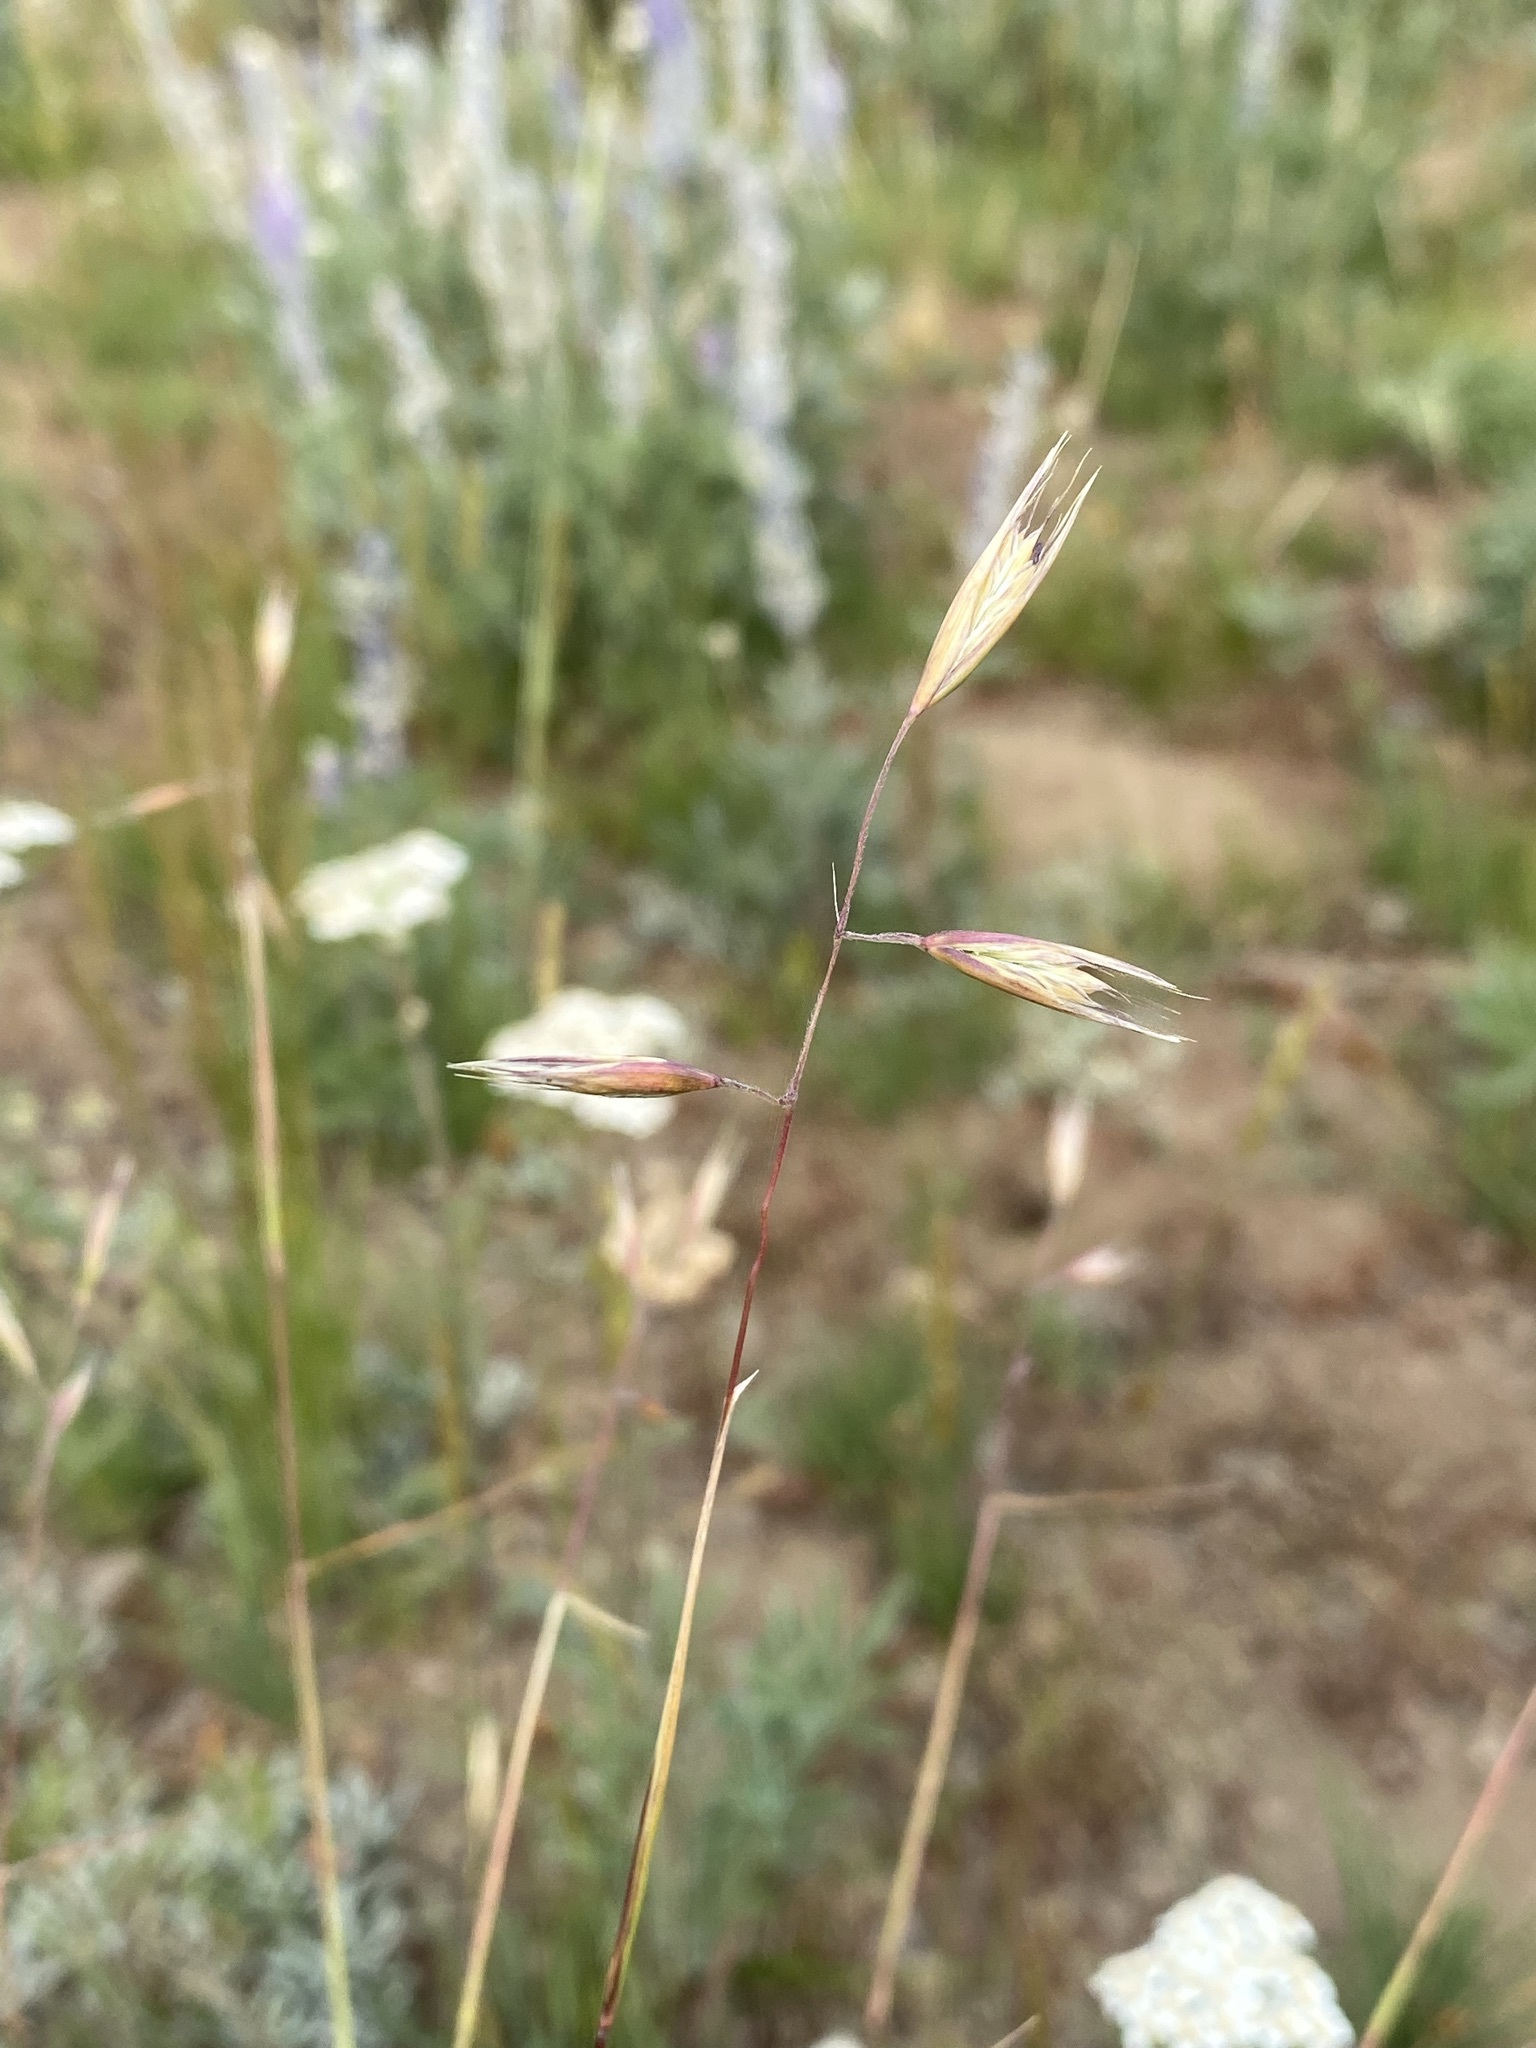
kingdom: Plantae
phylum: Tracheophyta
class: Liliopsida
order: Poales
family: Poaceae
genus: Danthonia
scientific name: Danthonia californica
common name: California oat grass
